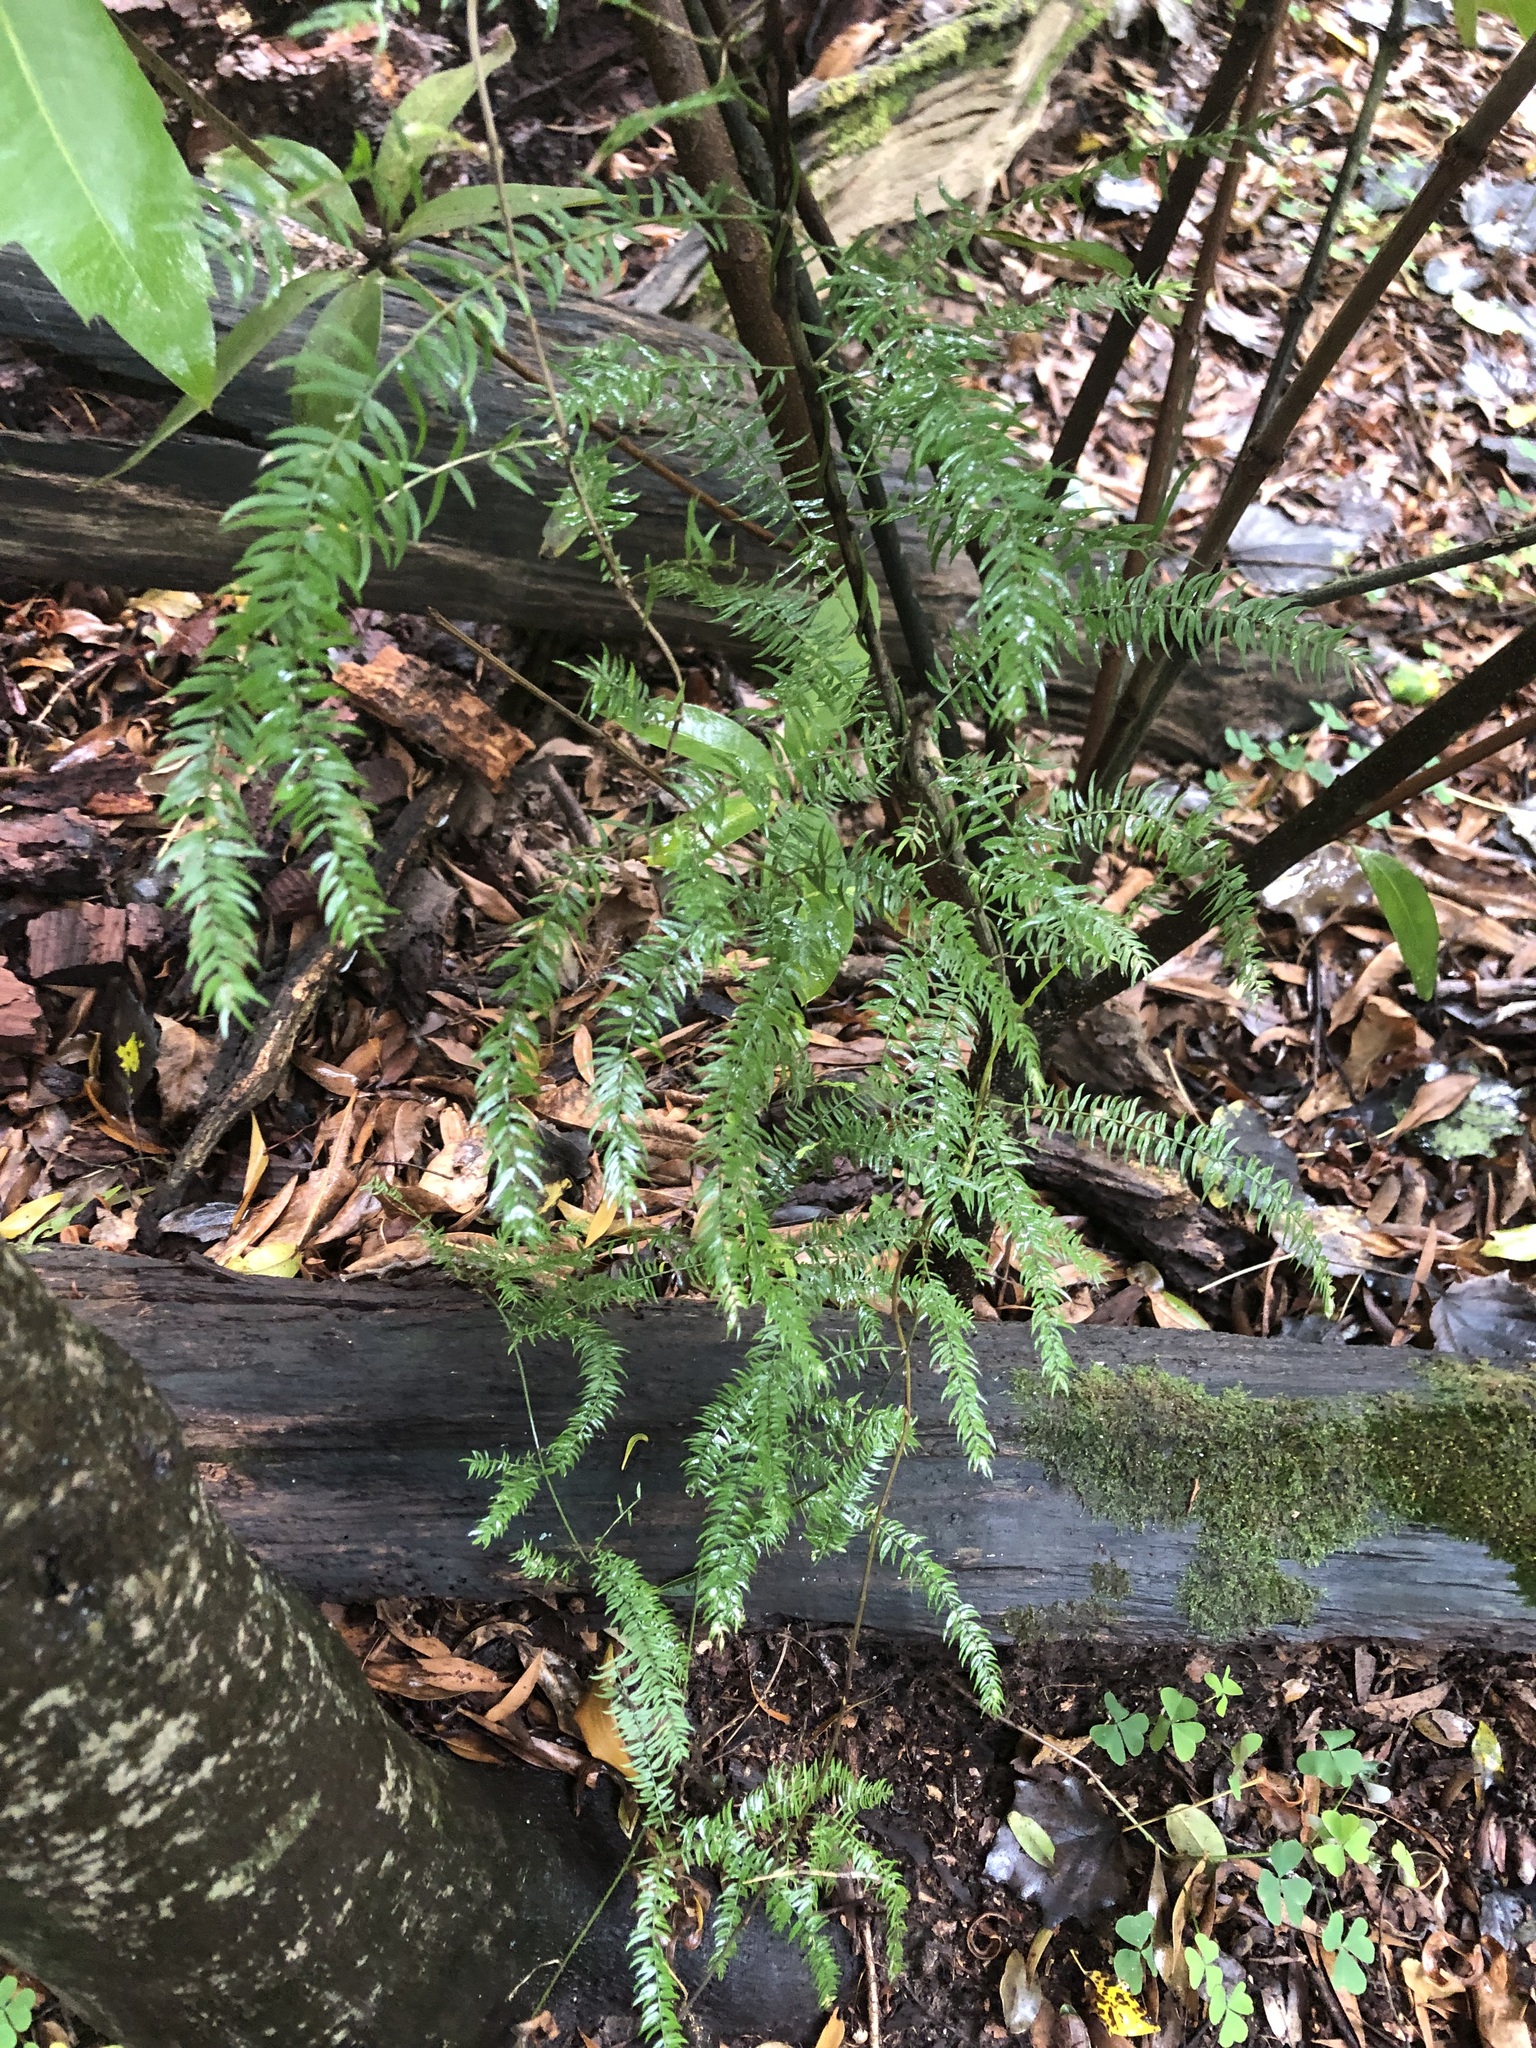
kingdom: Plantae
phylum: Tracheophyta
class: Liliopsida
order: Asparagales
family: Asparagaceae
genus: Asparagus
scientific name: Asparagus scandens
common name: Asparagus-fern
